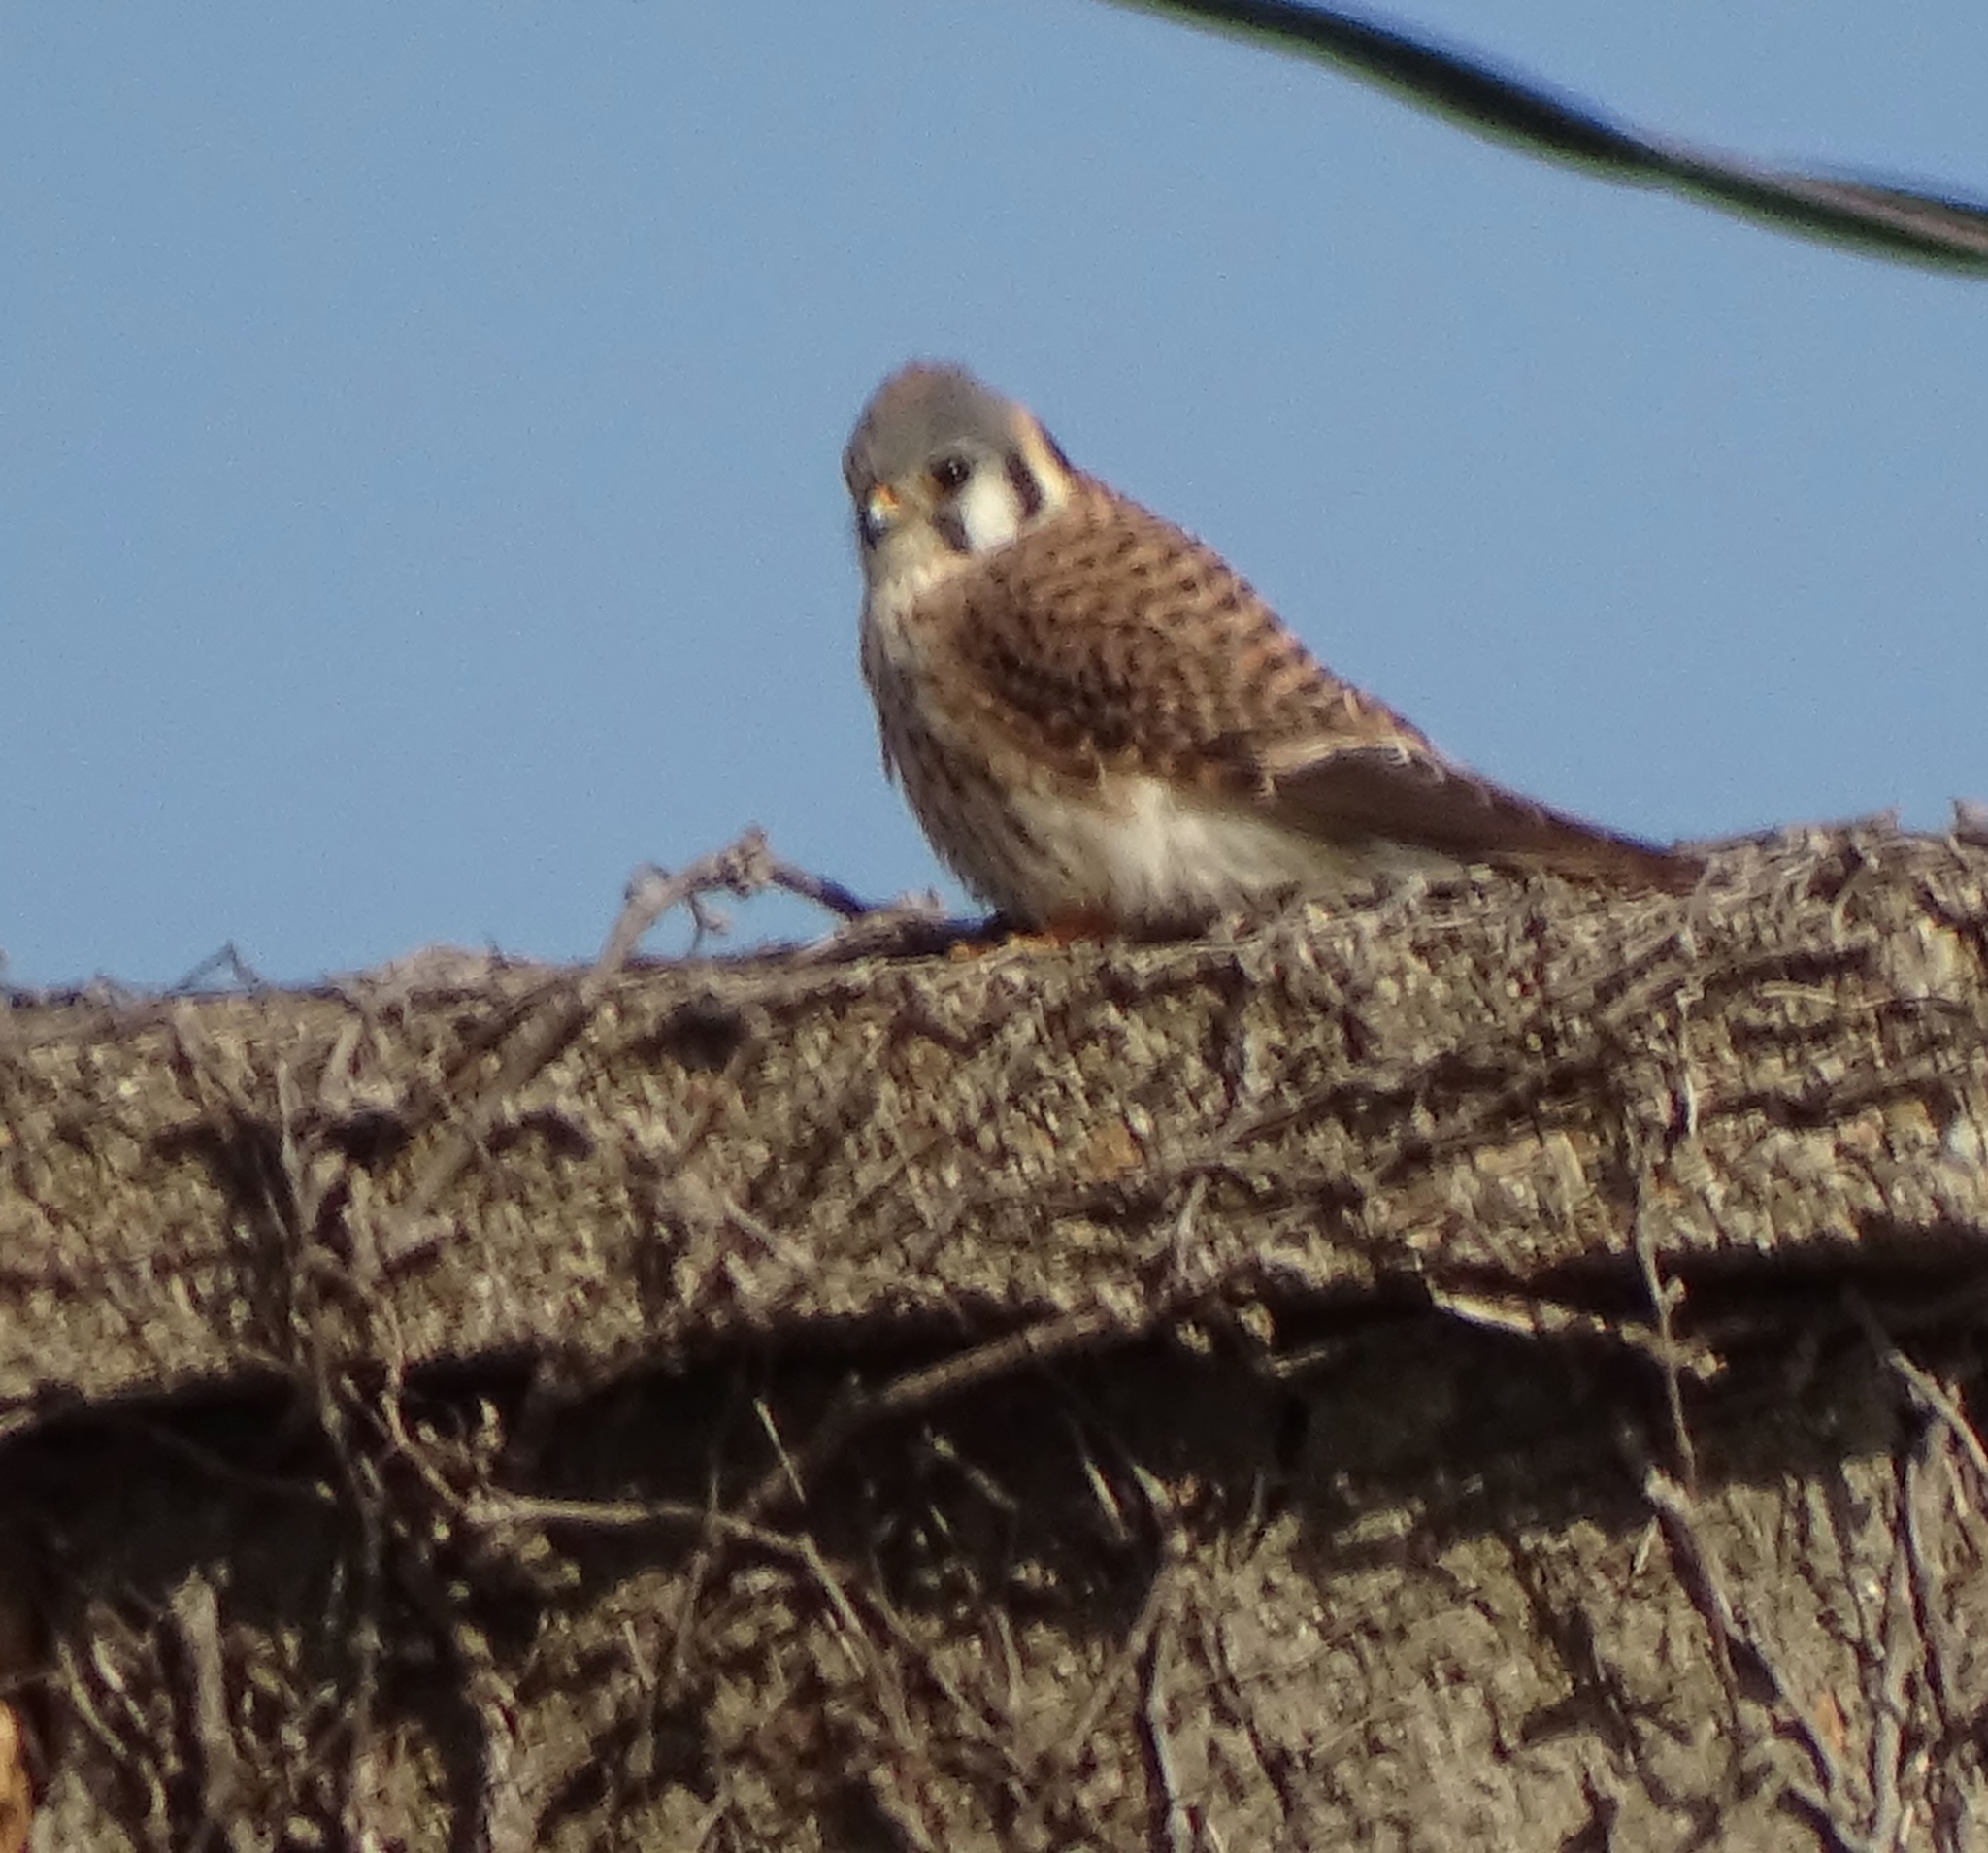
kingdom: Animalia
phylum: Chordata
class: Aves
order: Falconiformes
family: Falconidae
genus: Falco
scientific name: Falco sparverius
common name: American kestrel
